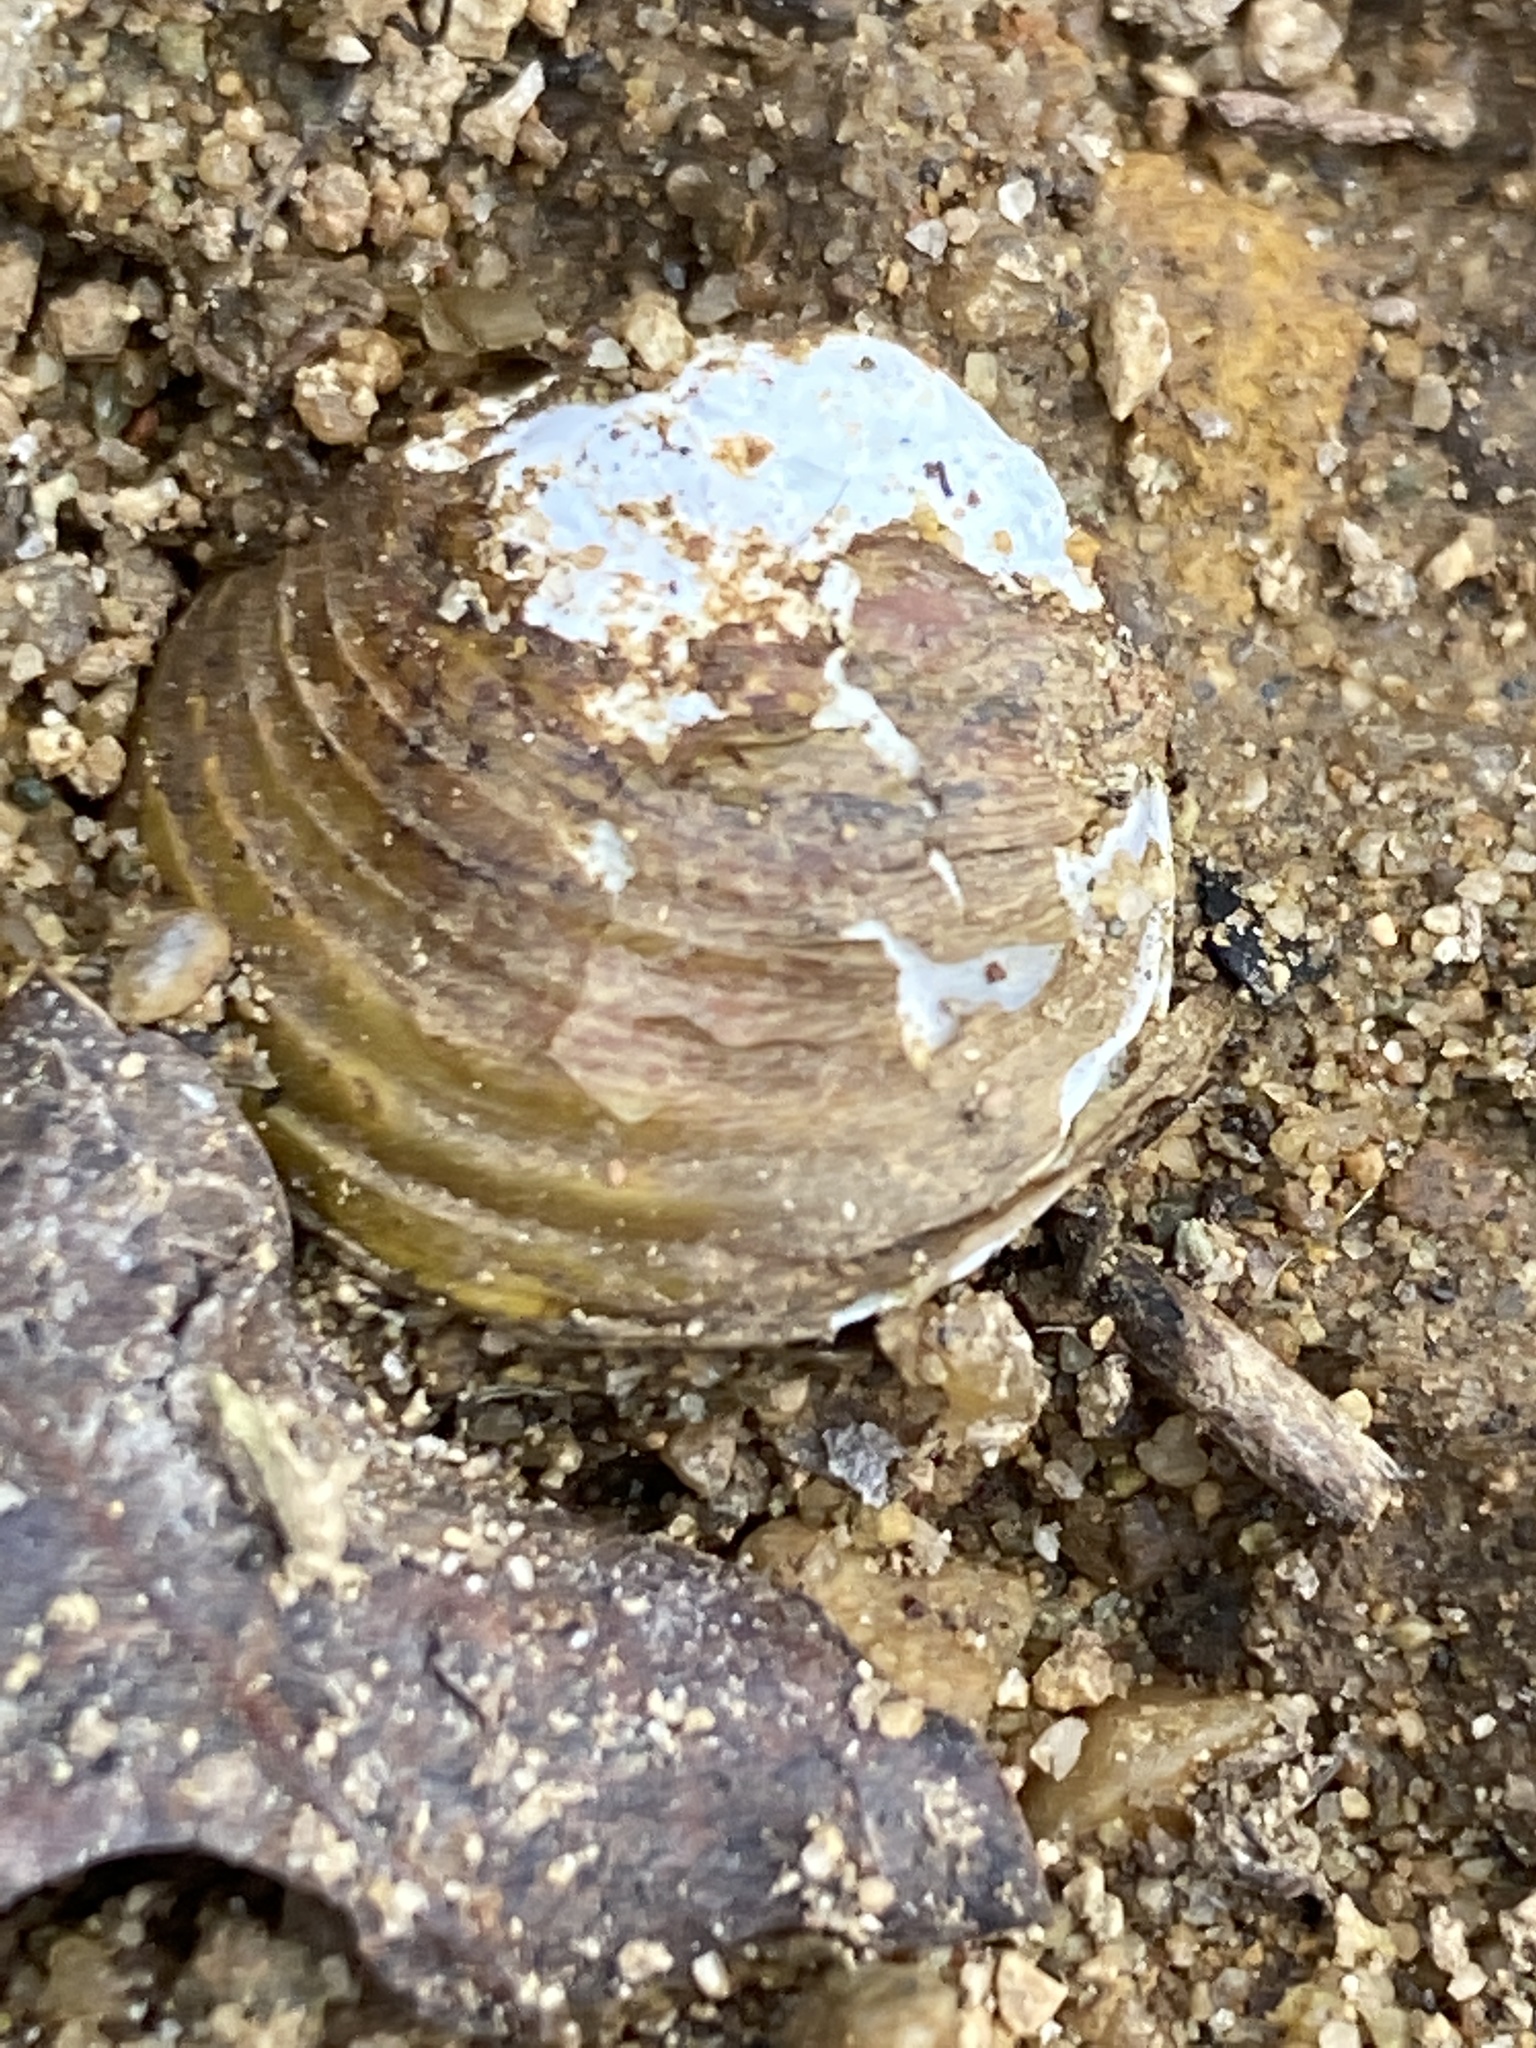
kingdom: Animalia
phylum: Mollusca
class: Bivalvia
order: Venerida
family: Cyrenidae
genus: Corbicula
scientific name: Corbicula fluminea
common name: Asian clam
